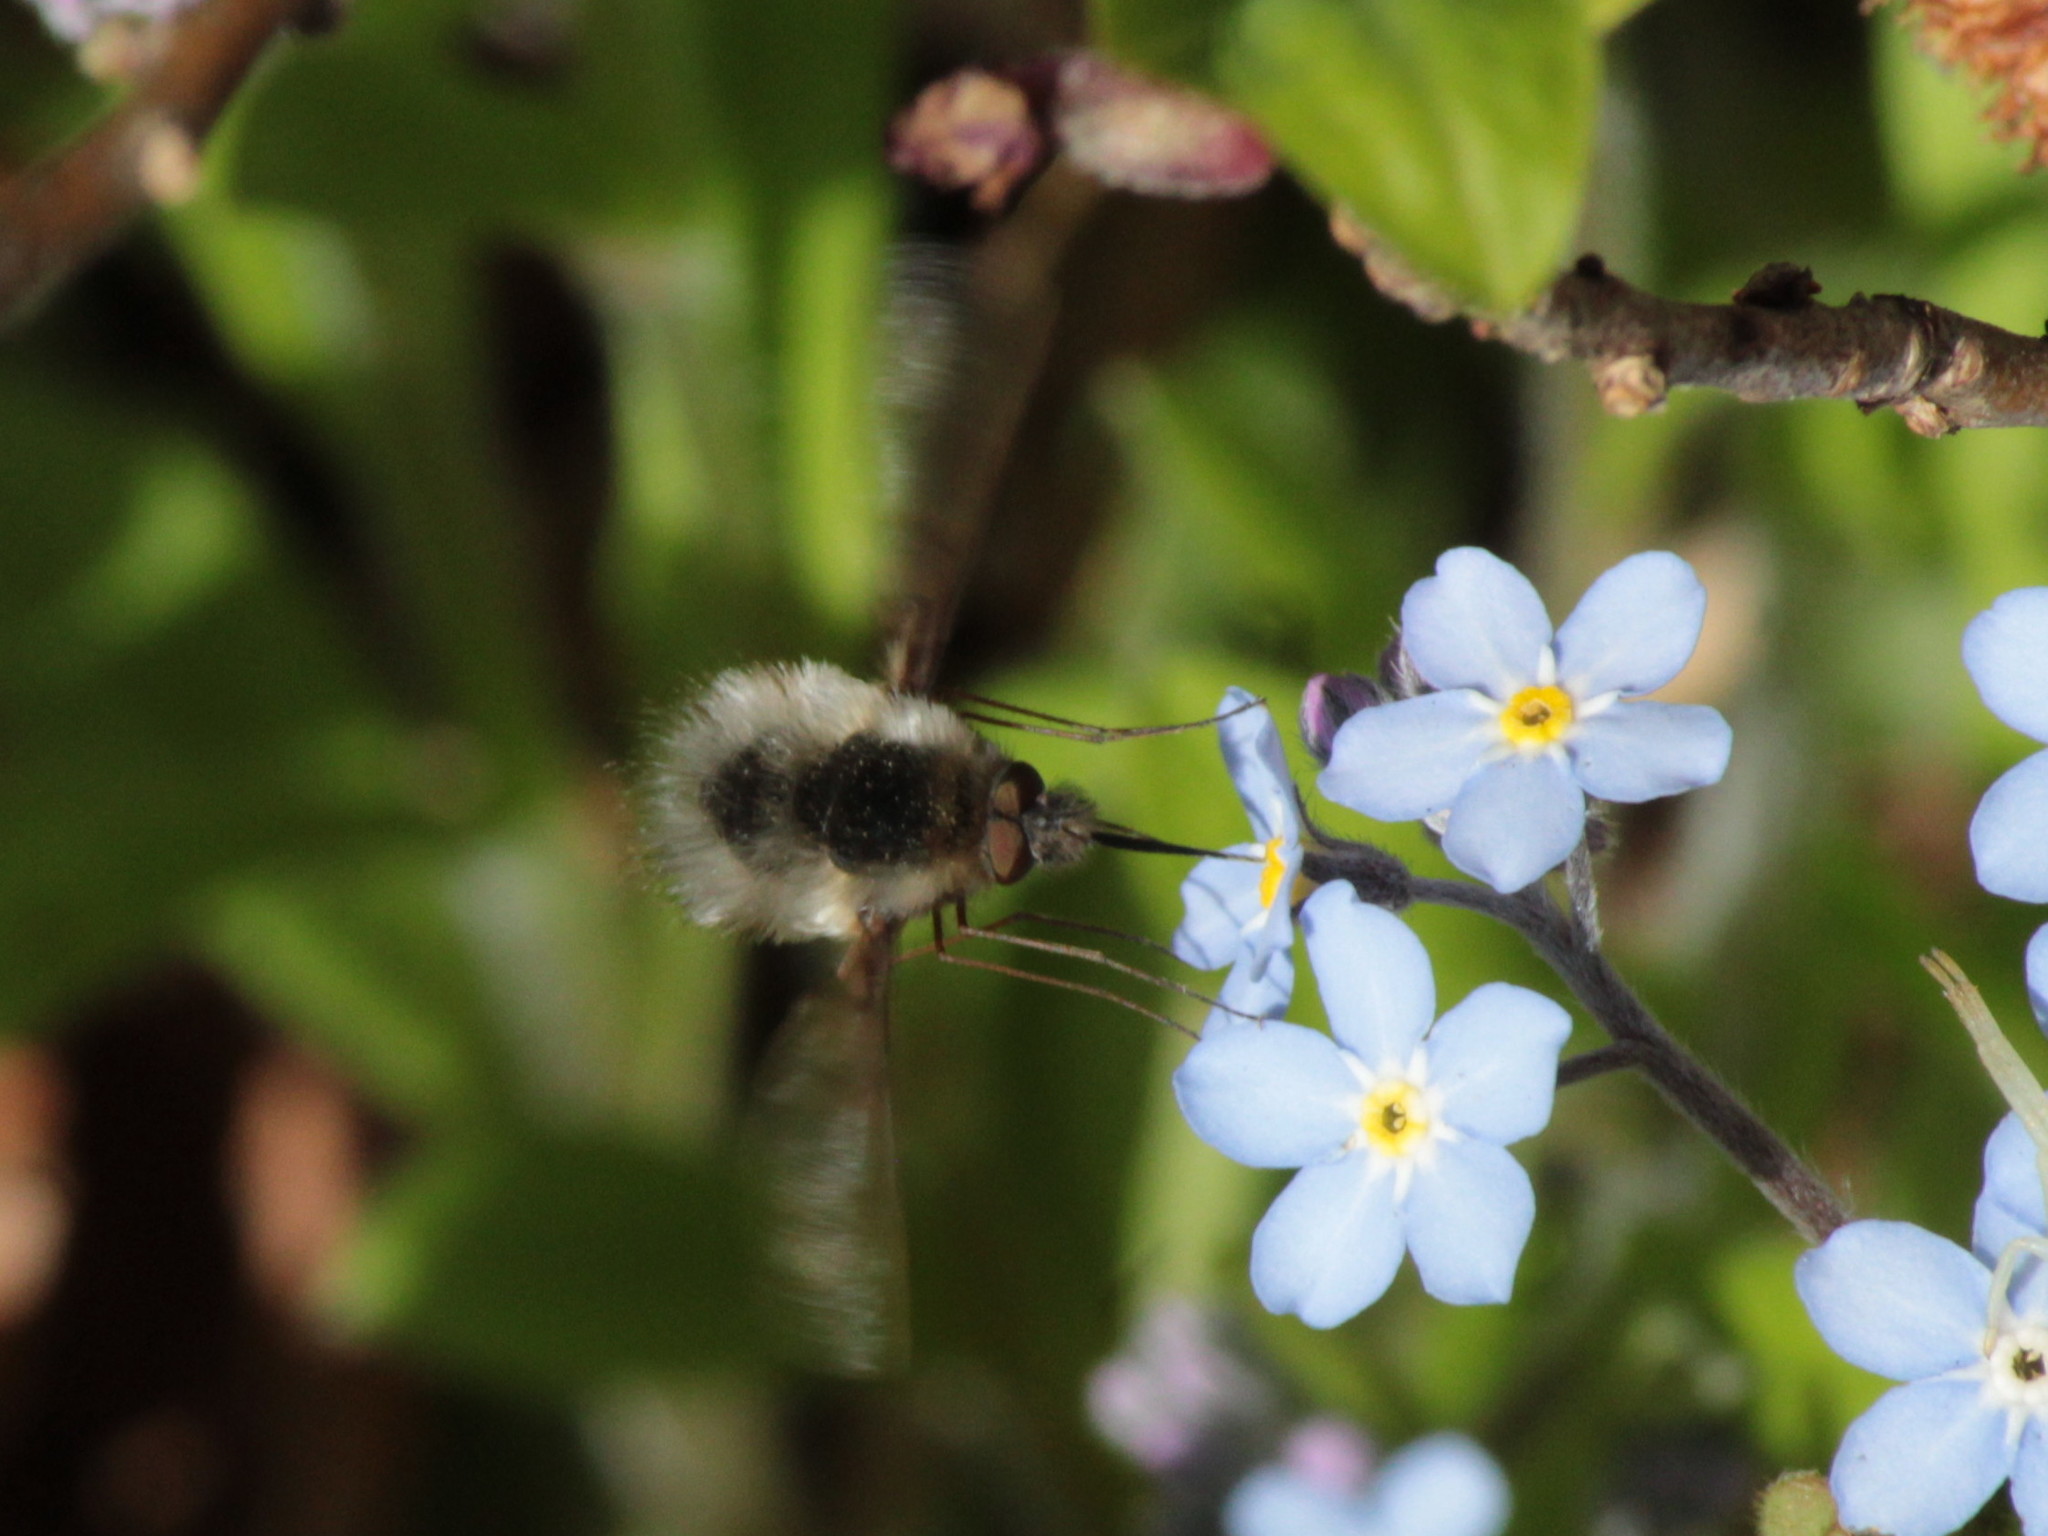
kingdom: Animalia
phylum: Arthropoda
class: Insecta
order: Diptera
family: Bombyliidae
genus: Bombylius
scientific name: Bombylius major
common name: Bee fly
